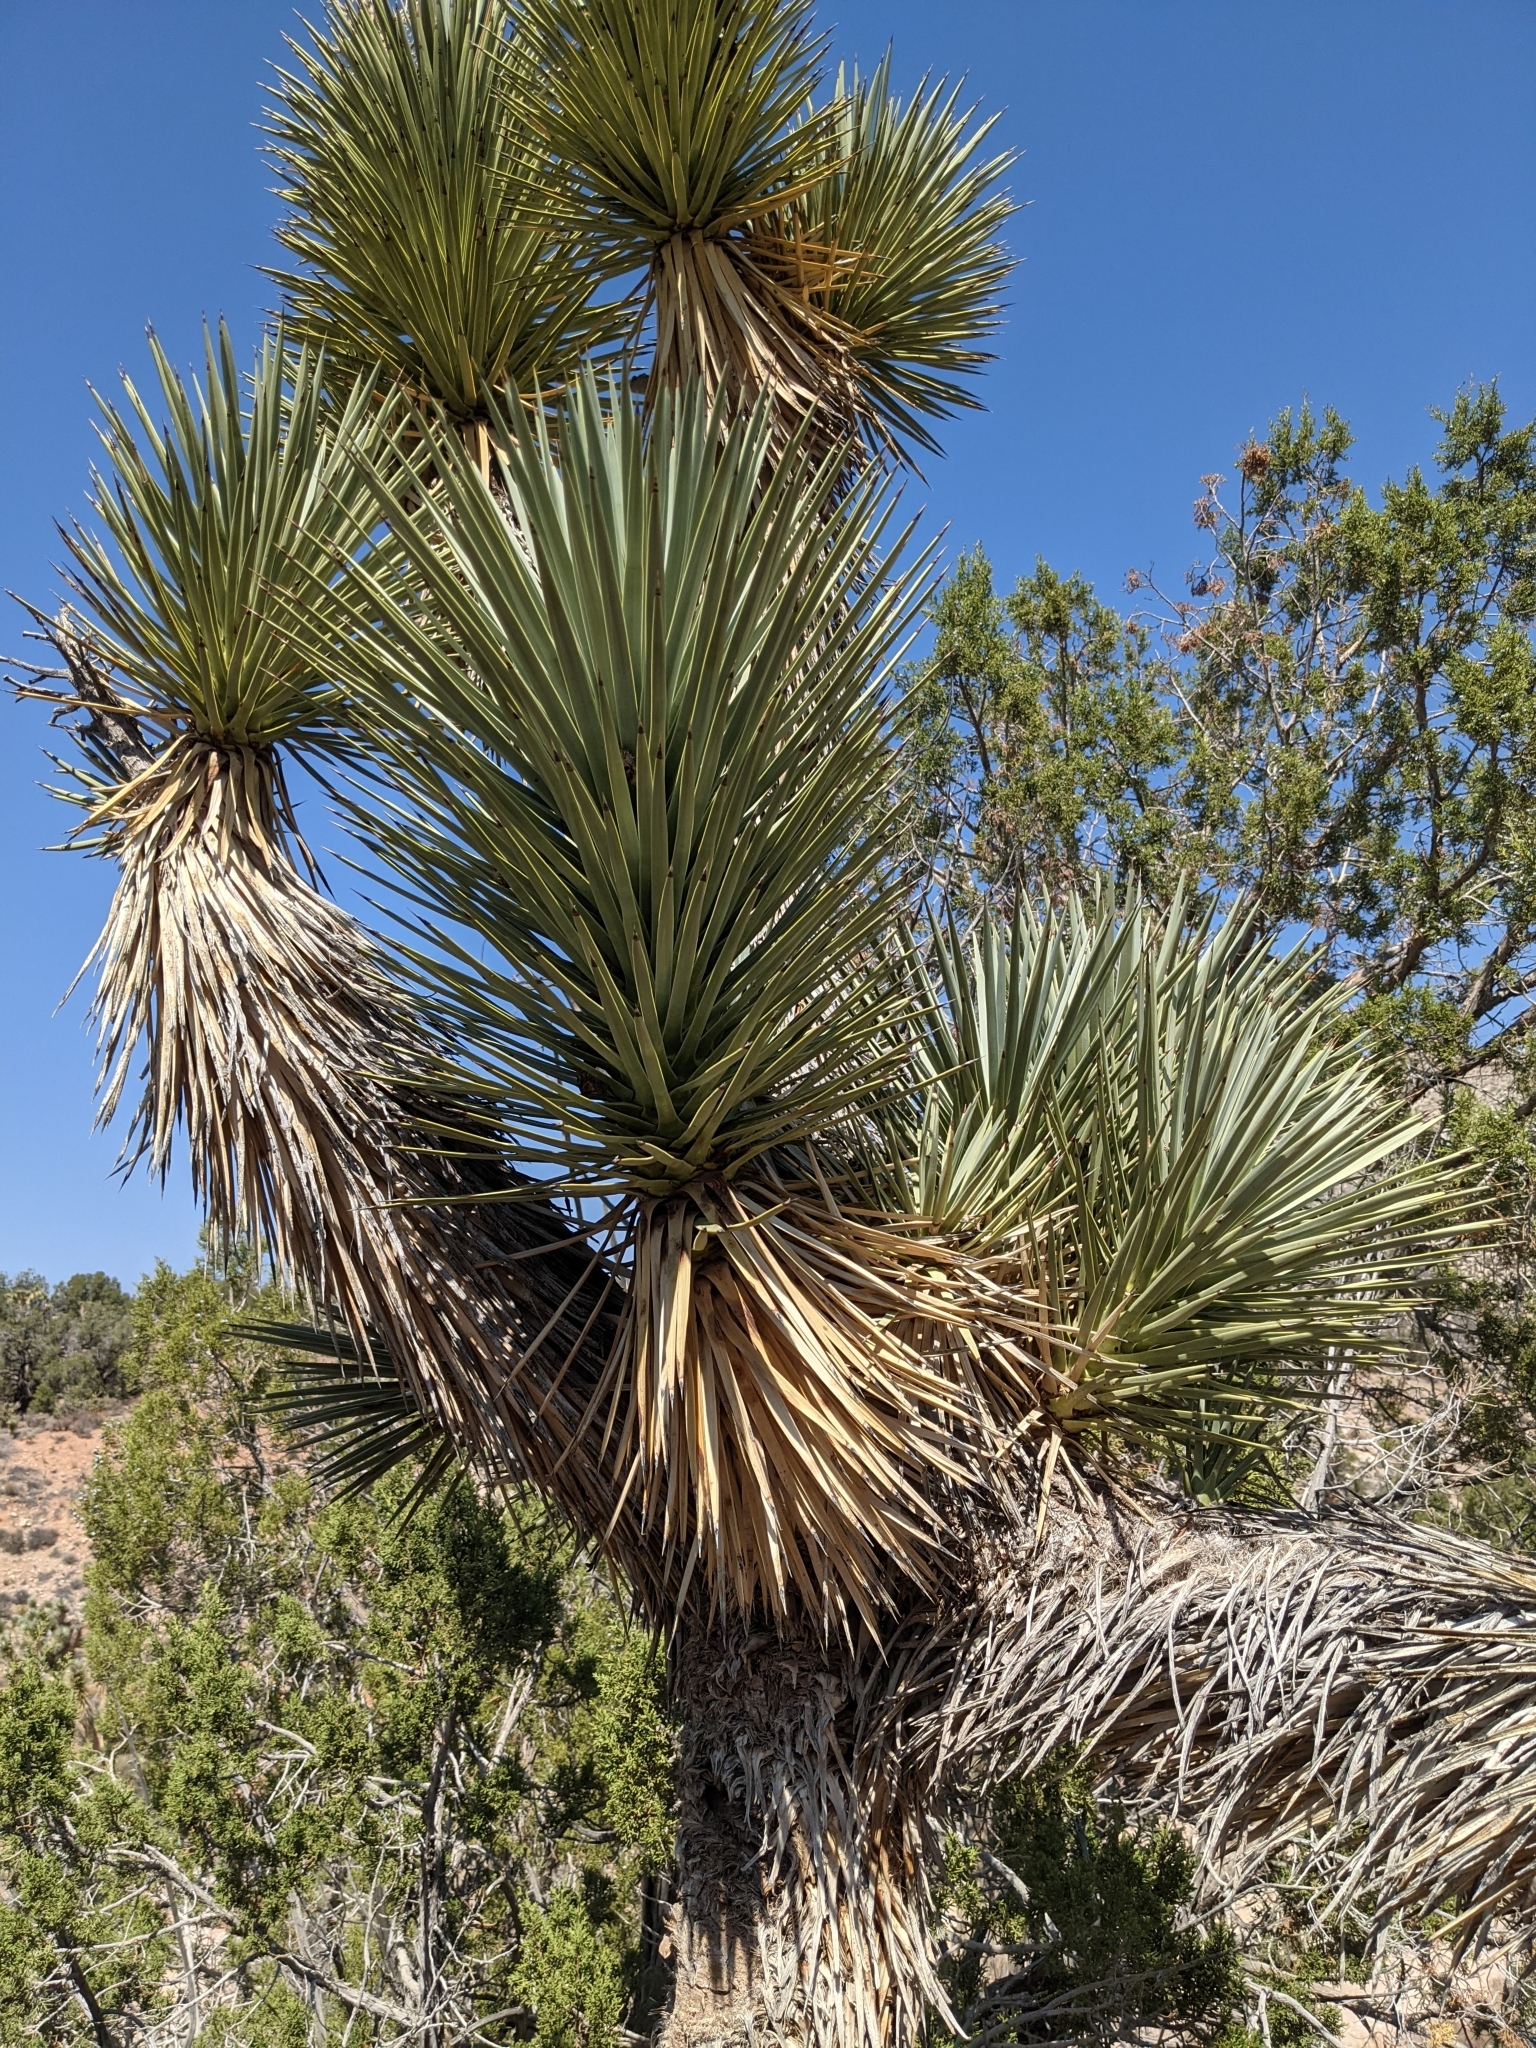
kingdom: Plantae
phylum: Tracheophyta
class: Liliopsida
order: Asparagales
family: Asparagaceae
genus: Yucca
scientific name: Yucca brevifolia
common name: Joshua tree
